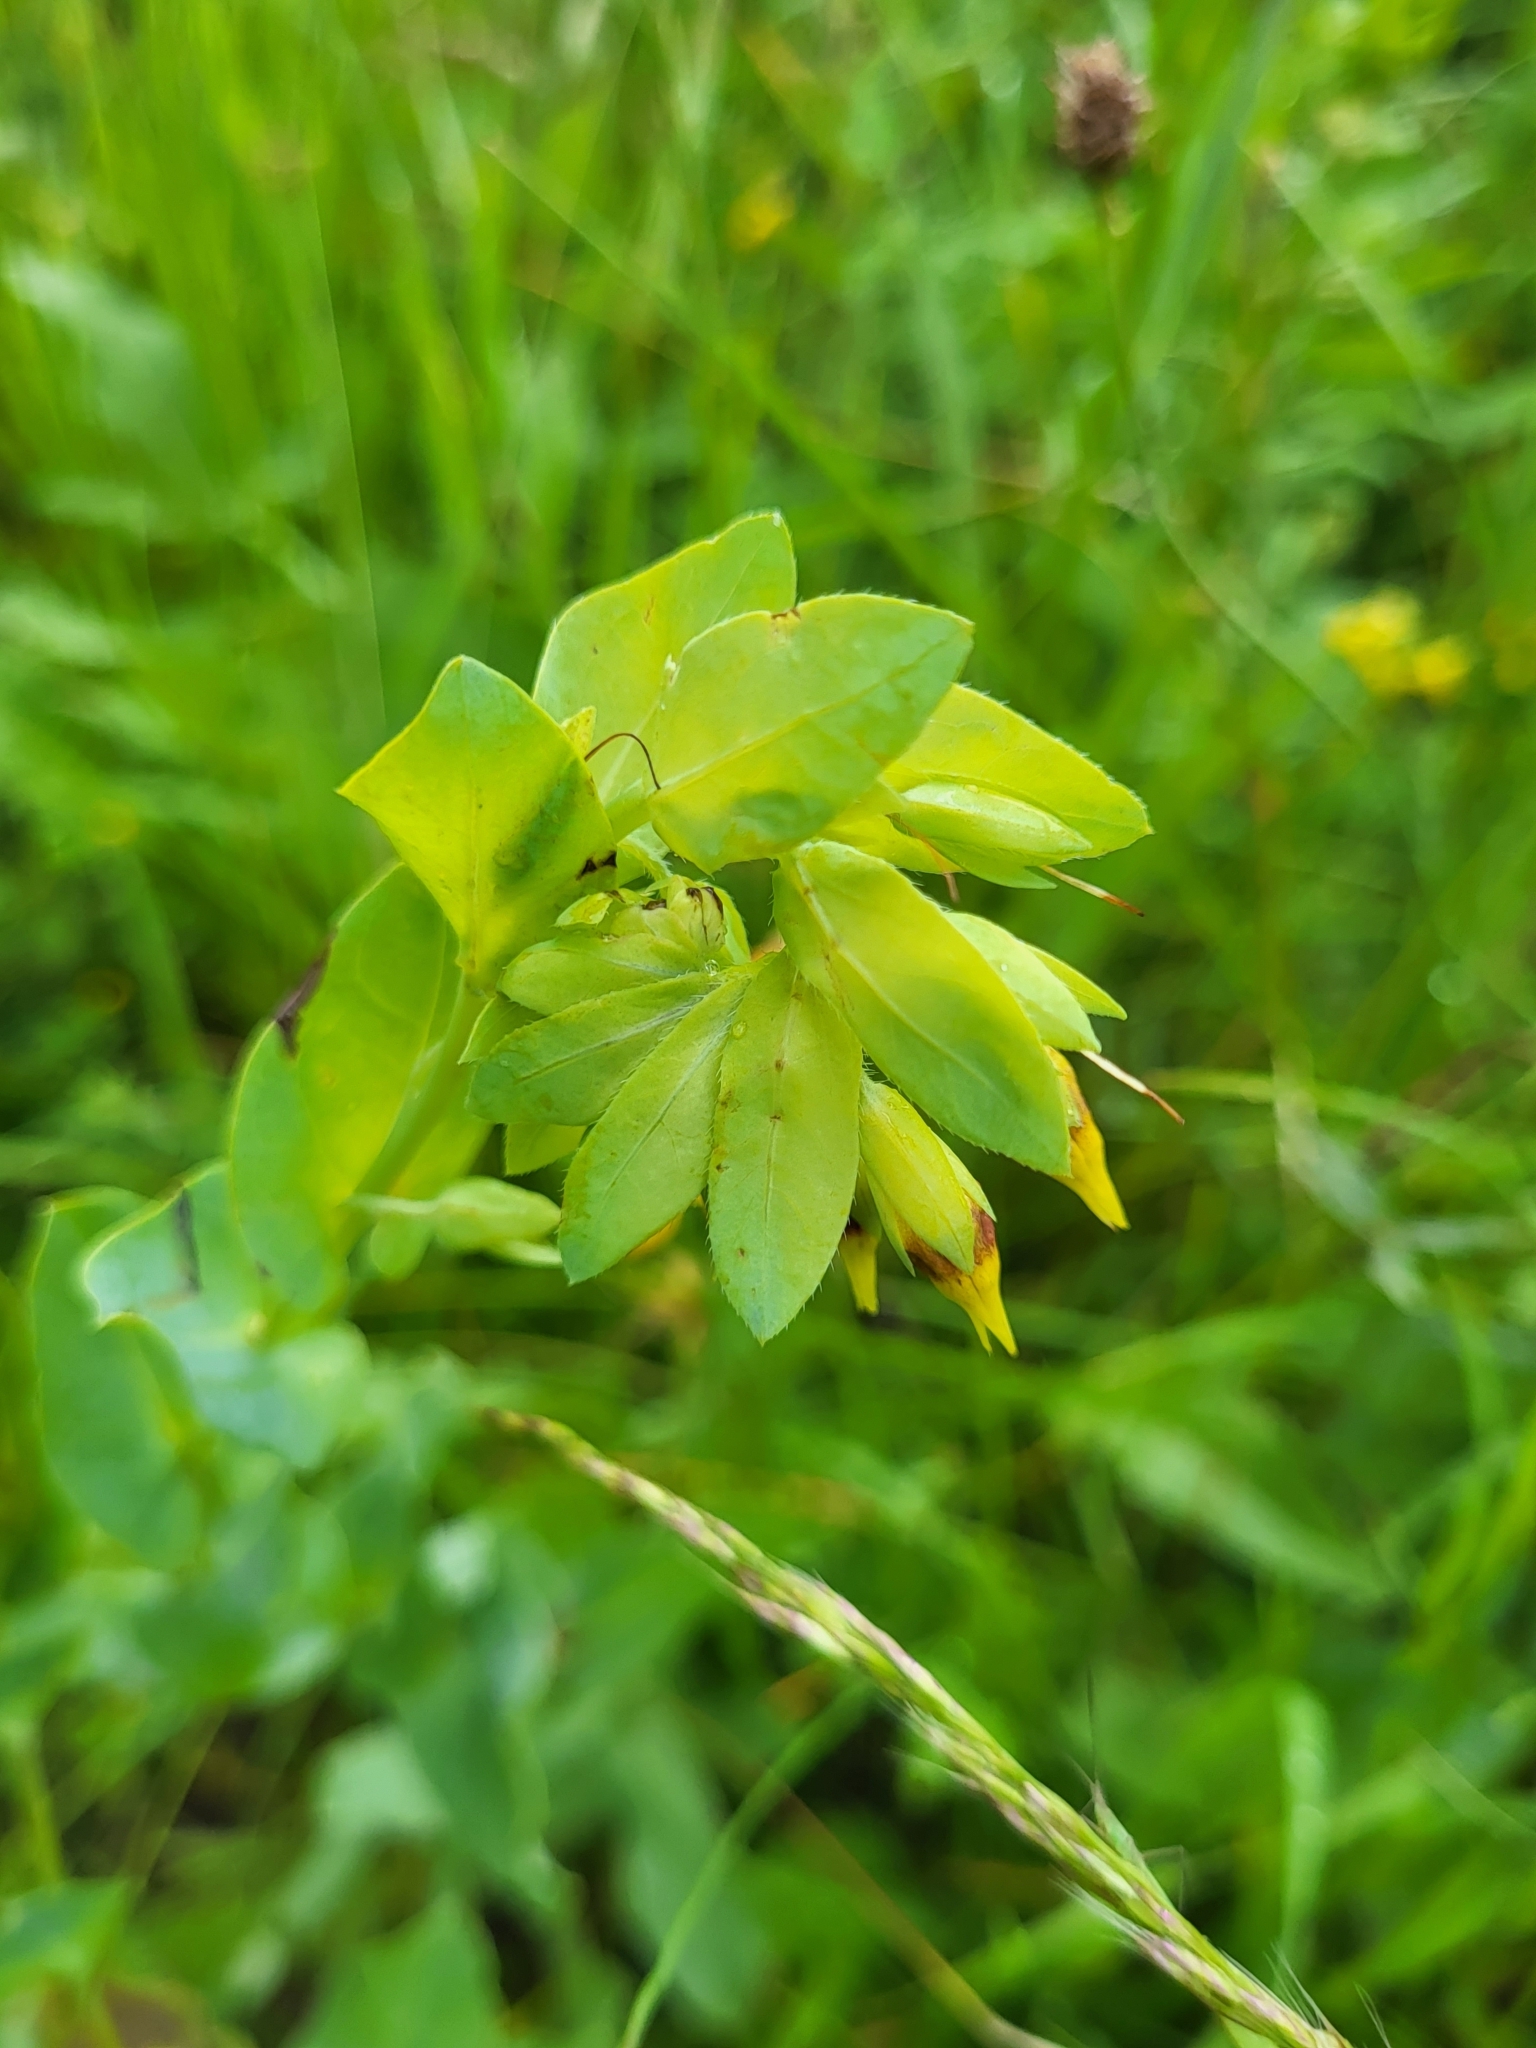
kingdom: Plantae
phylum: Tracheophyta
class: Magnoliopsida
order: Boraginales
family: Boraginaceae
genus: Cerinthe
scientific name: Cerinthe minor
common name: Lesser honeywort
